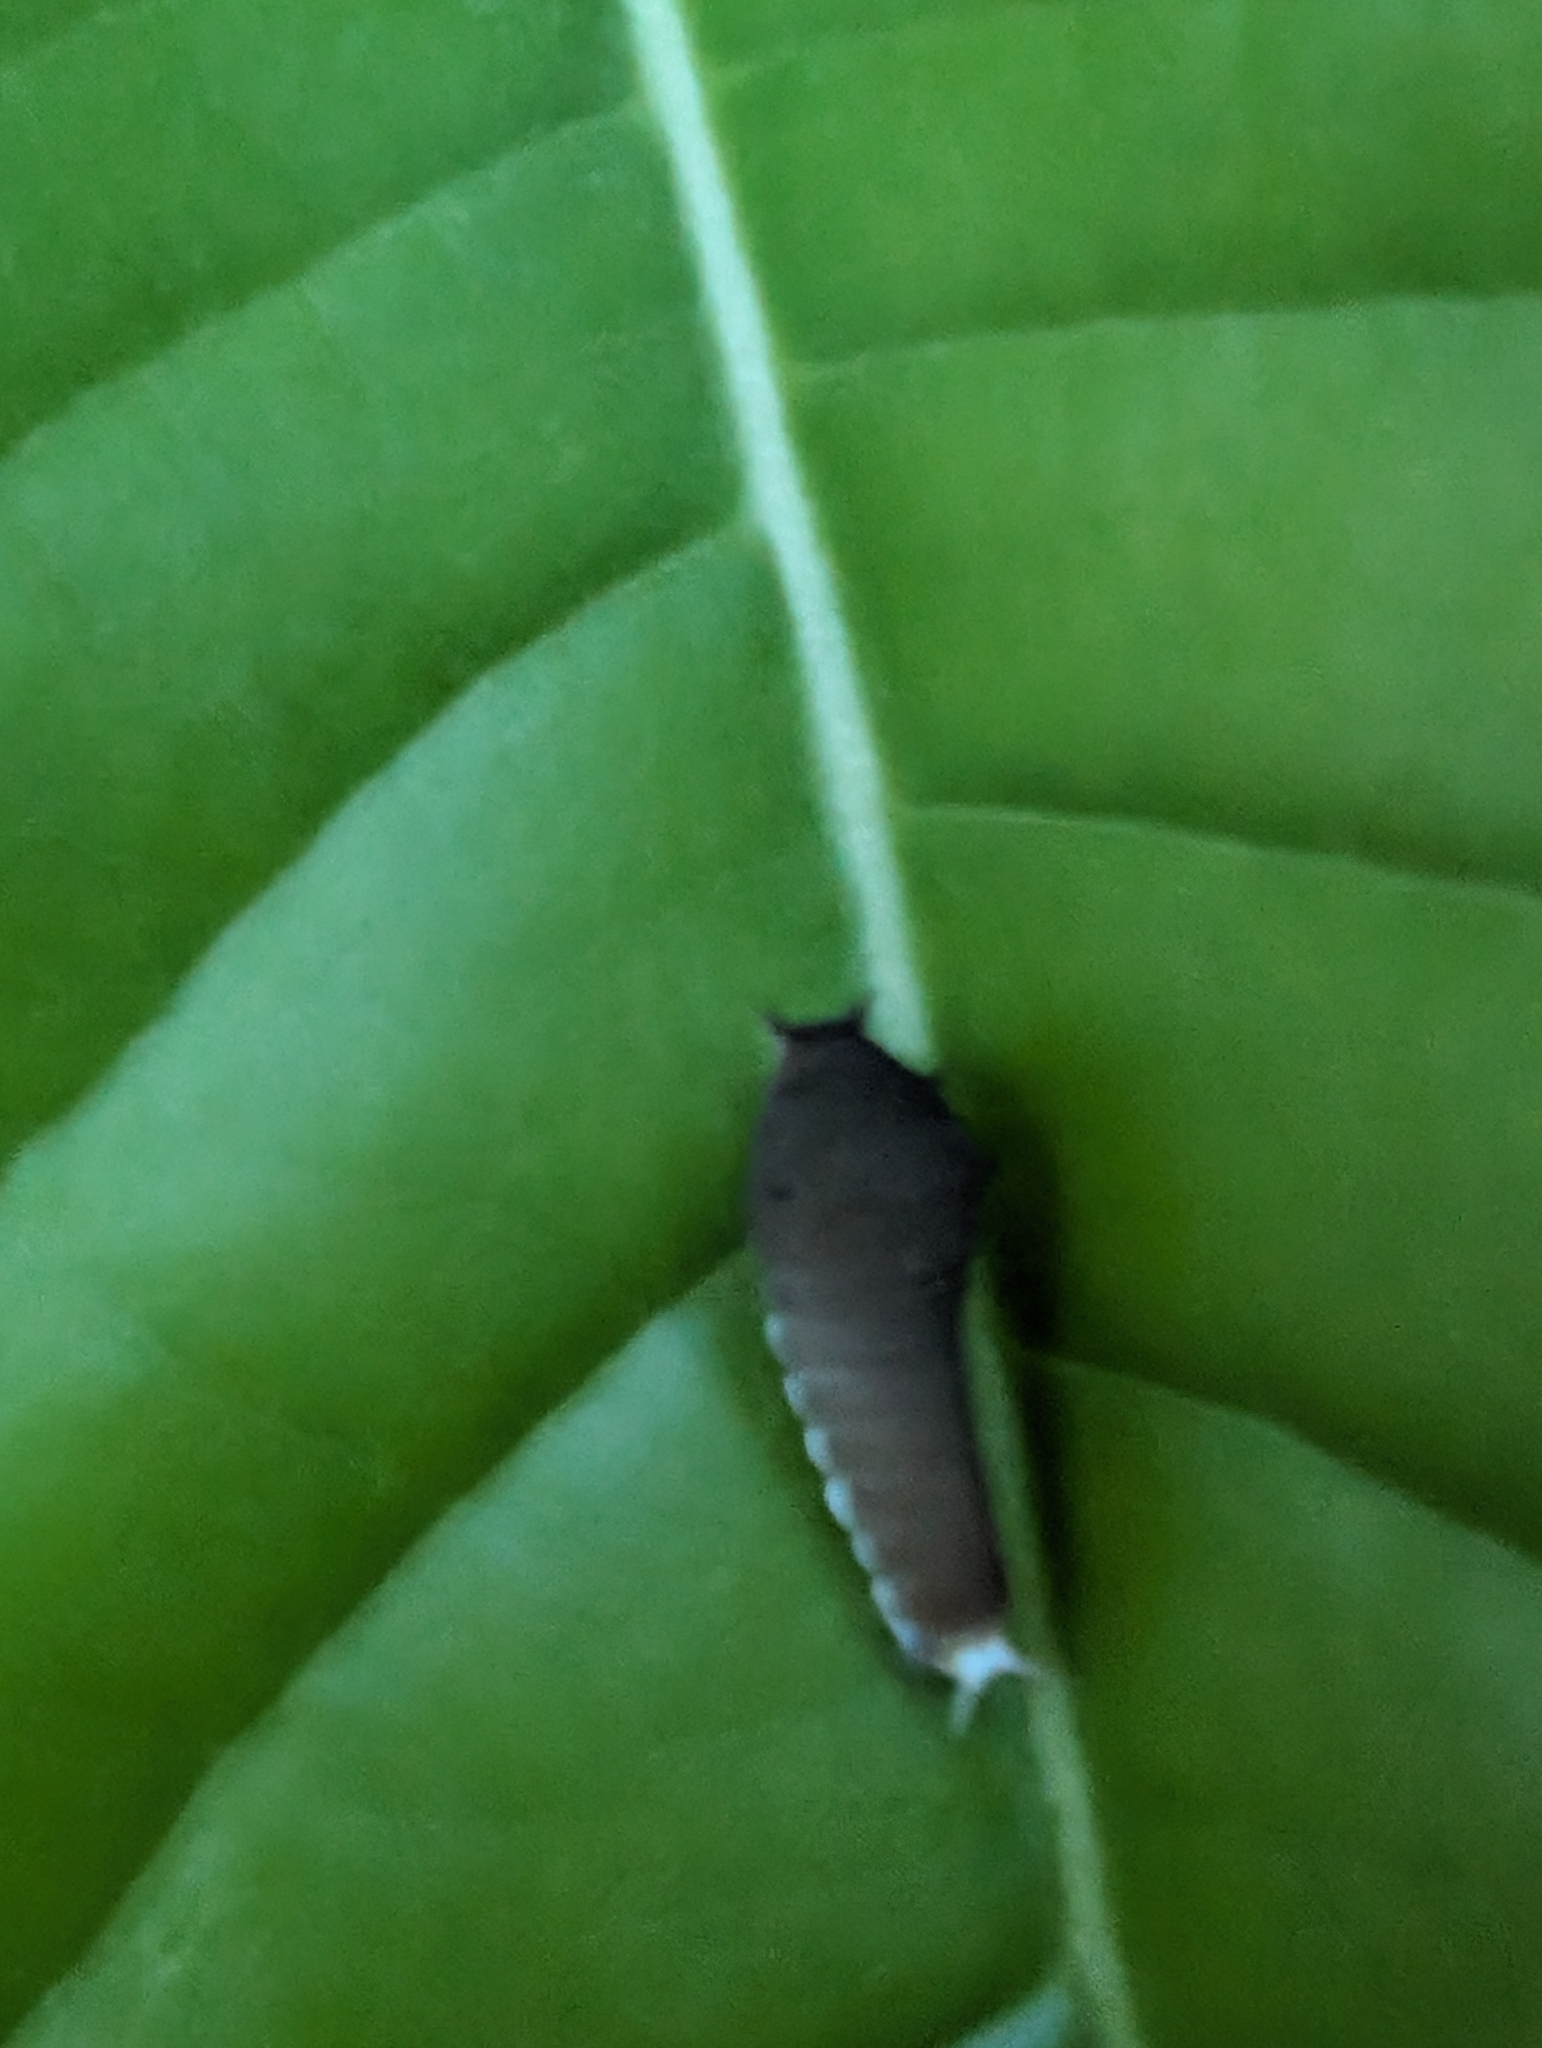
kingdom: Animalia
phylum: Arthropoda
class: Insecta
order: Lepidoptera
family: Papilionidae
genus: Graphium
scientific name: Graphium doson
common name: Common jay
